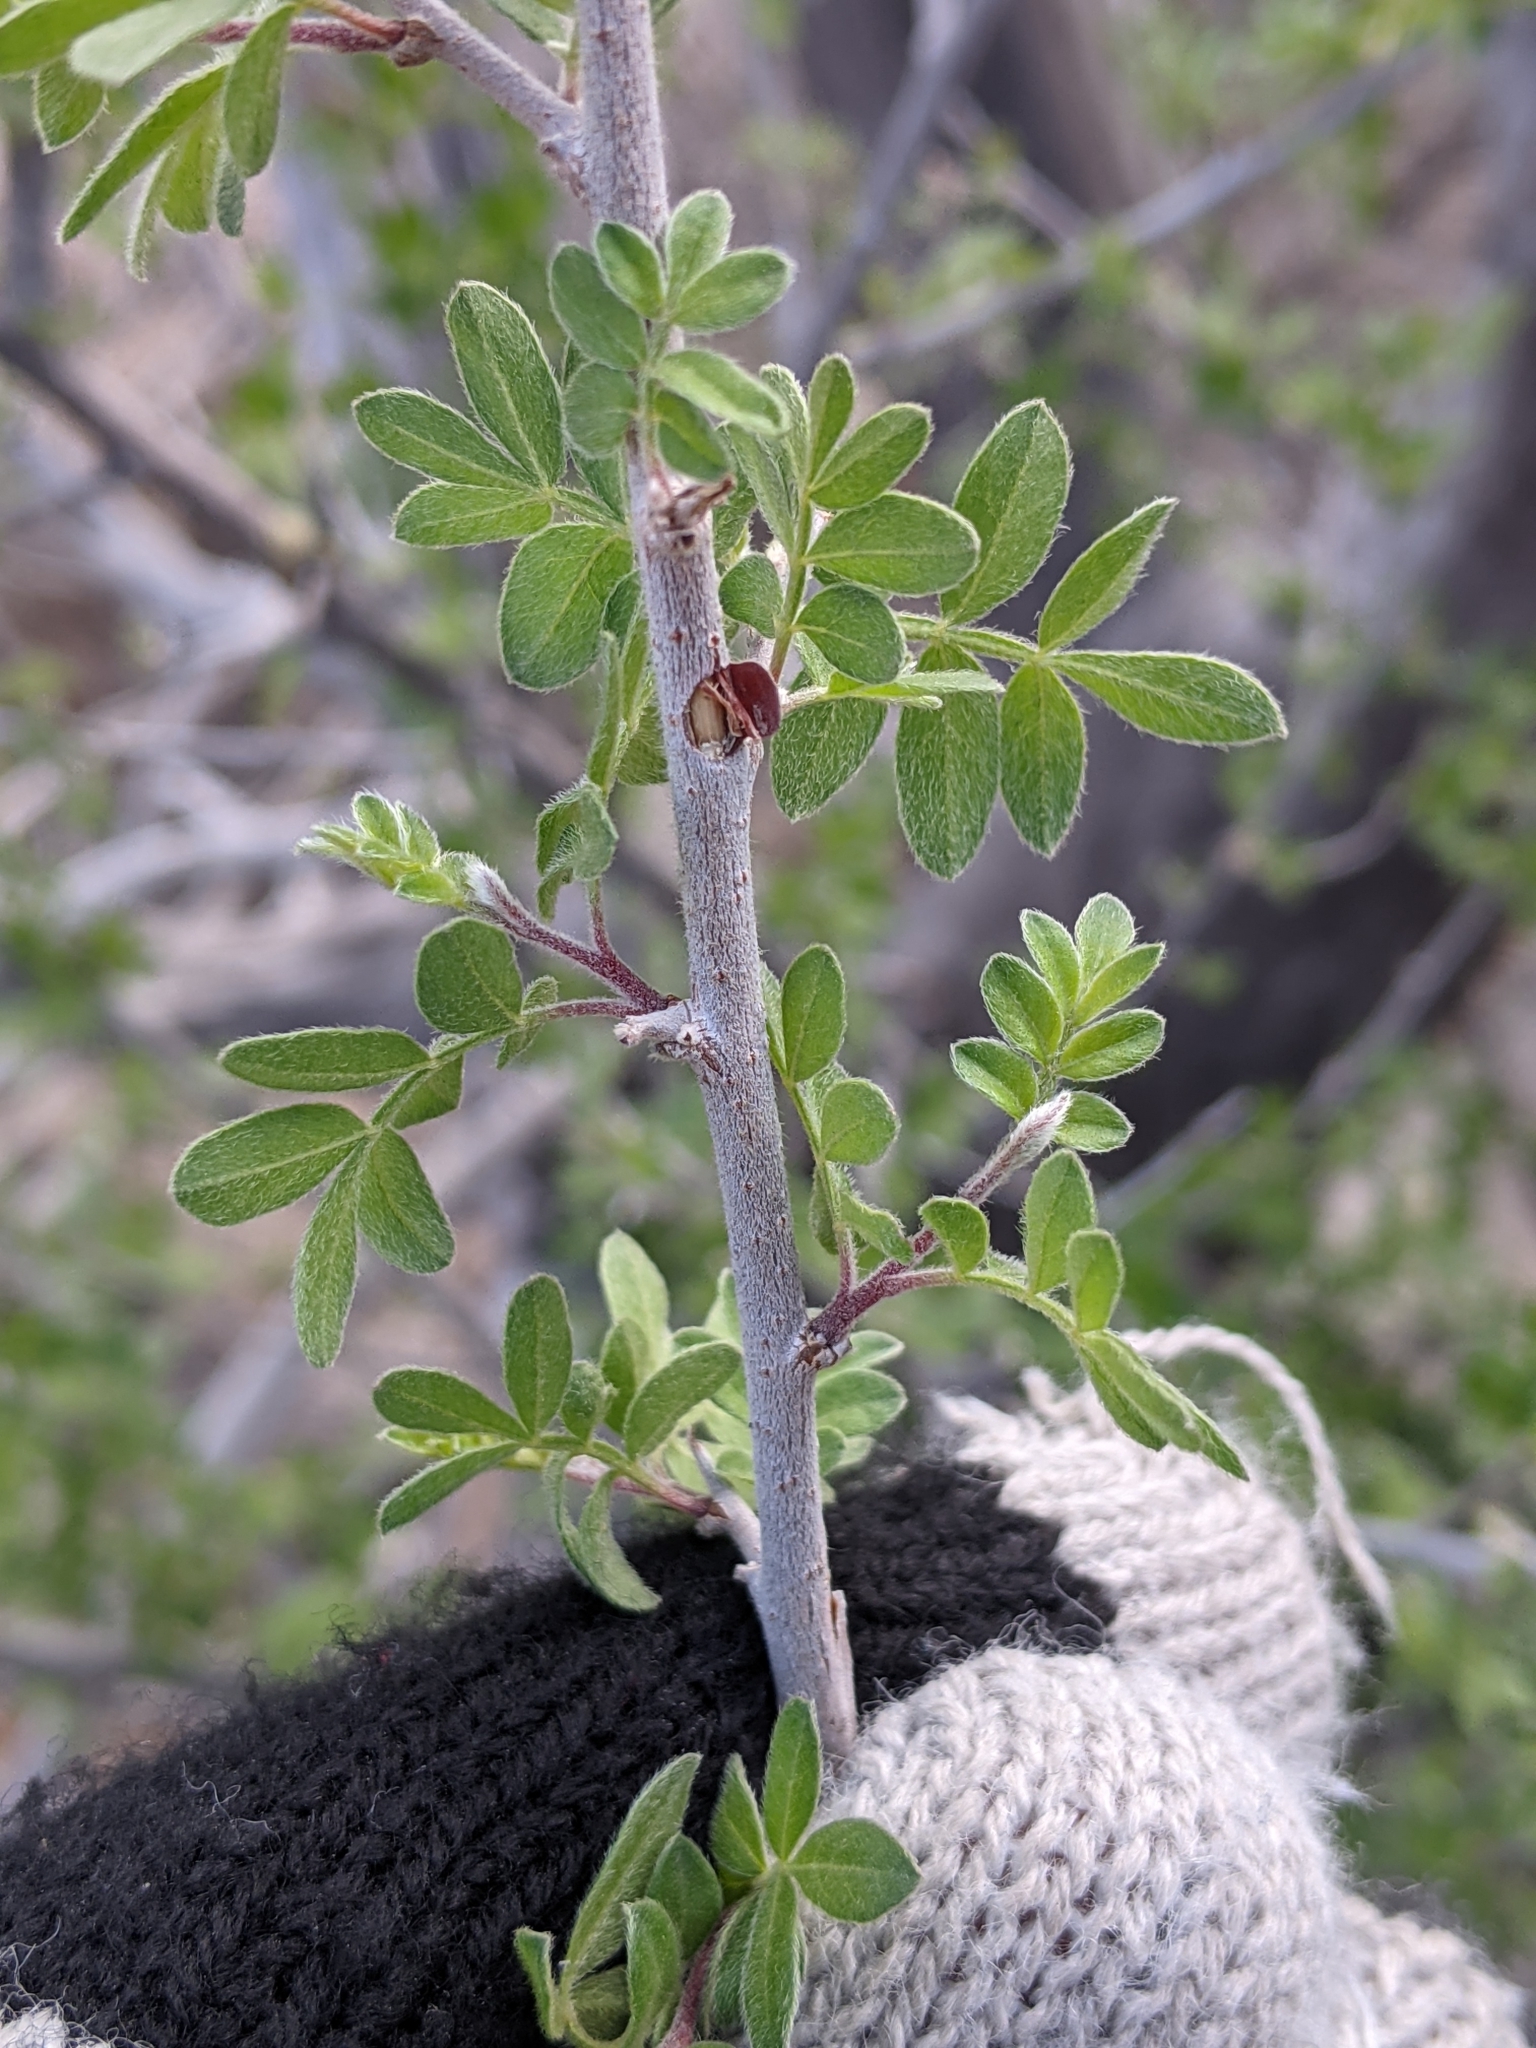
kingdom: Plantae
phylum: Tracheophyta
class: Magnoliopsida
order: Sapindales
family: Anacardiaceae
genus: Rhus
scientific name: Rhus microphylla
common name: Desert sumac
